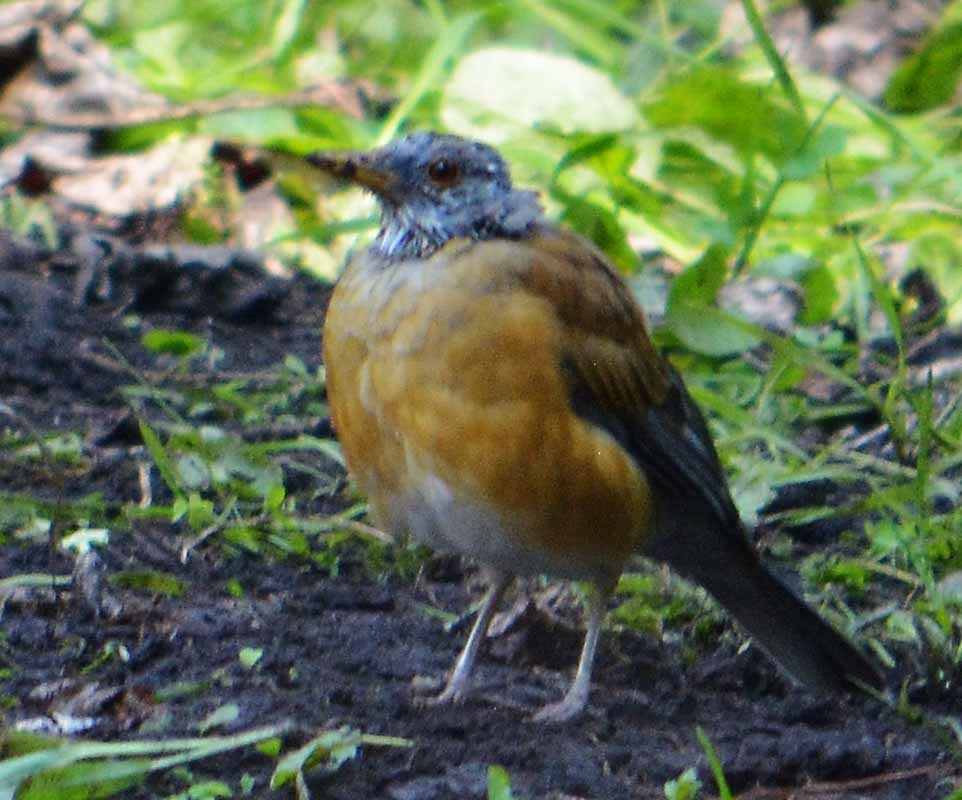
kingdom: Animalia
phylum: Chordata
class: Aves
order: Passeriformes
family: Turdidae
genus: Turdus
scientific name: Turdus rufopalliatus
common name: Rufous-backed robin
